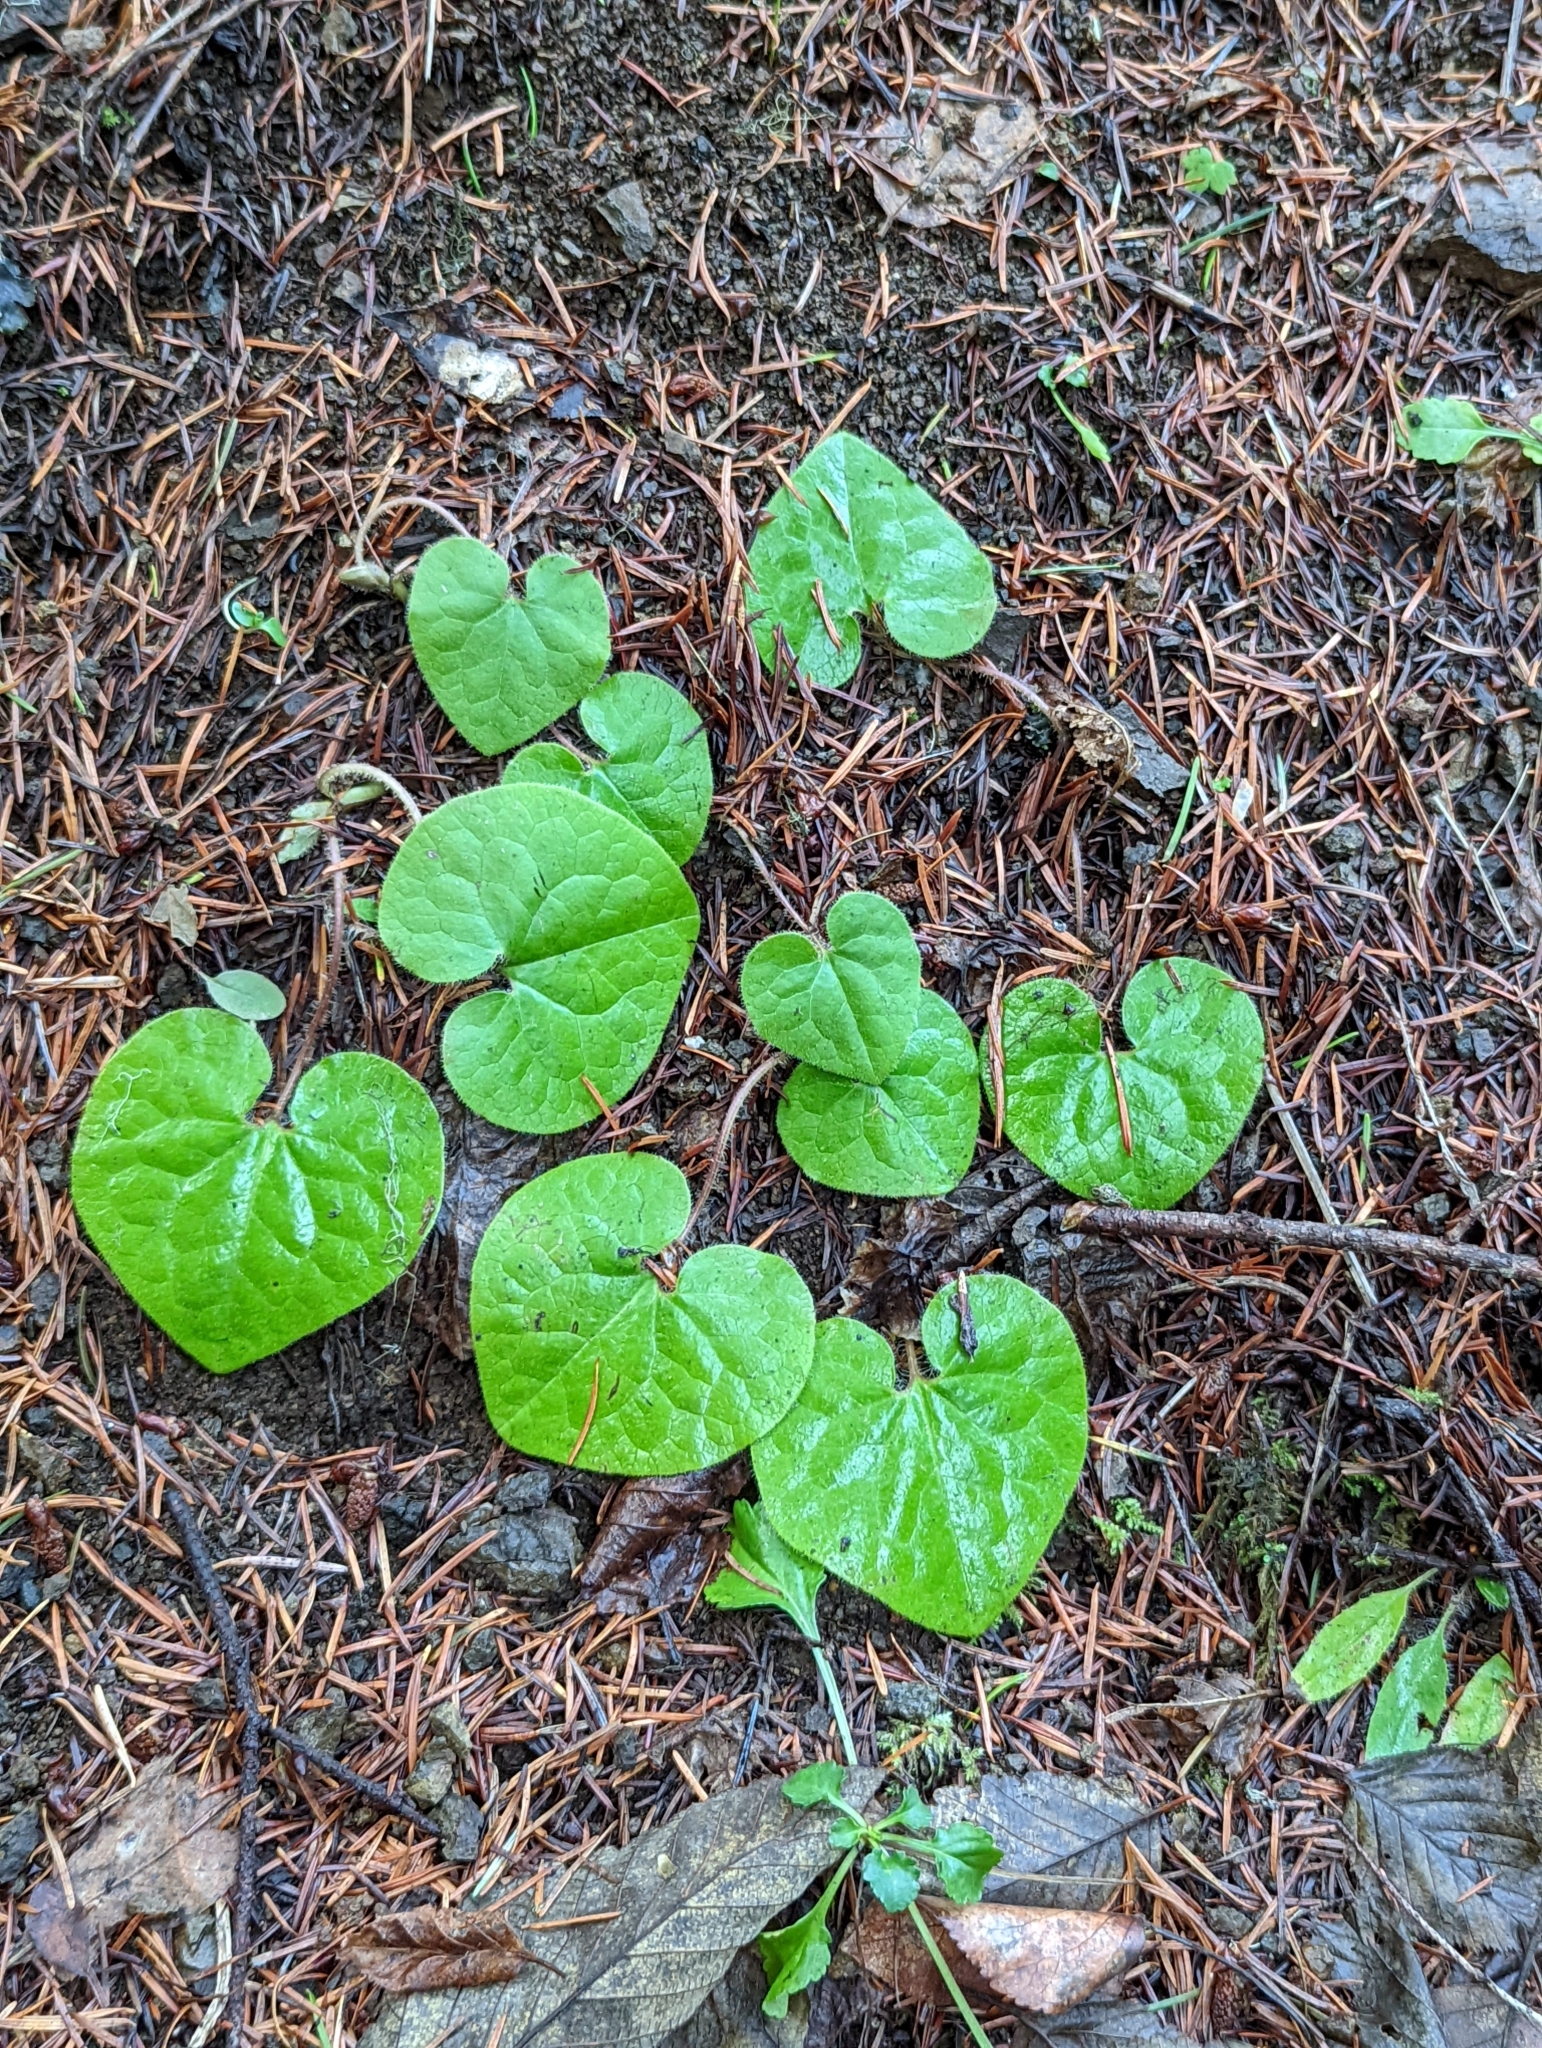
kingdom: Plantae
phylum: Tracheophyta
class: Magnoliopsida
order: Piperales
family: Aristolochiaceae
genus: Asarum
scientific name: Asarum caudatum
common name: Wild ginger
